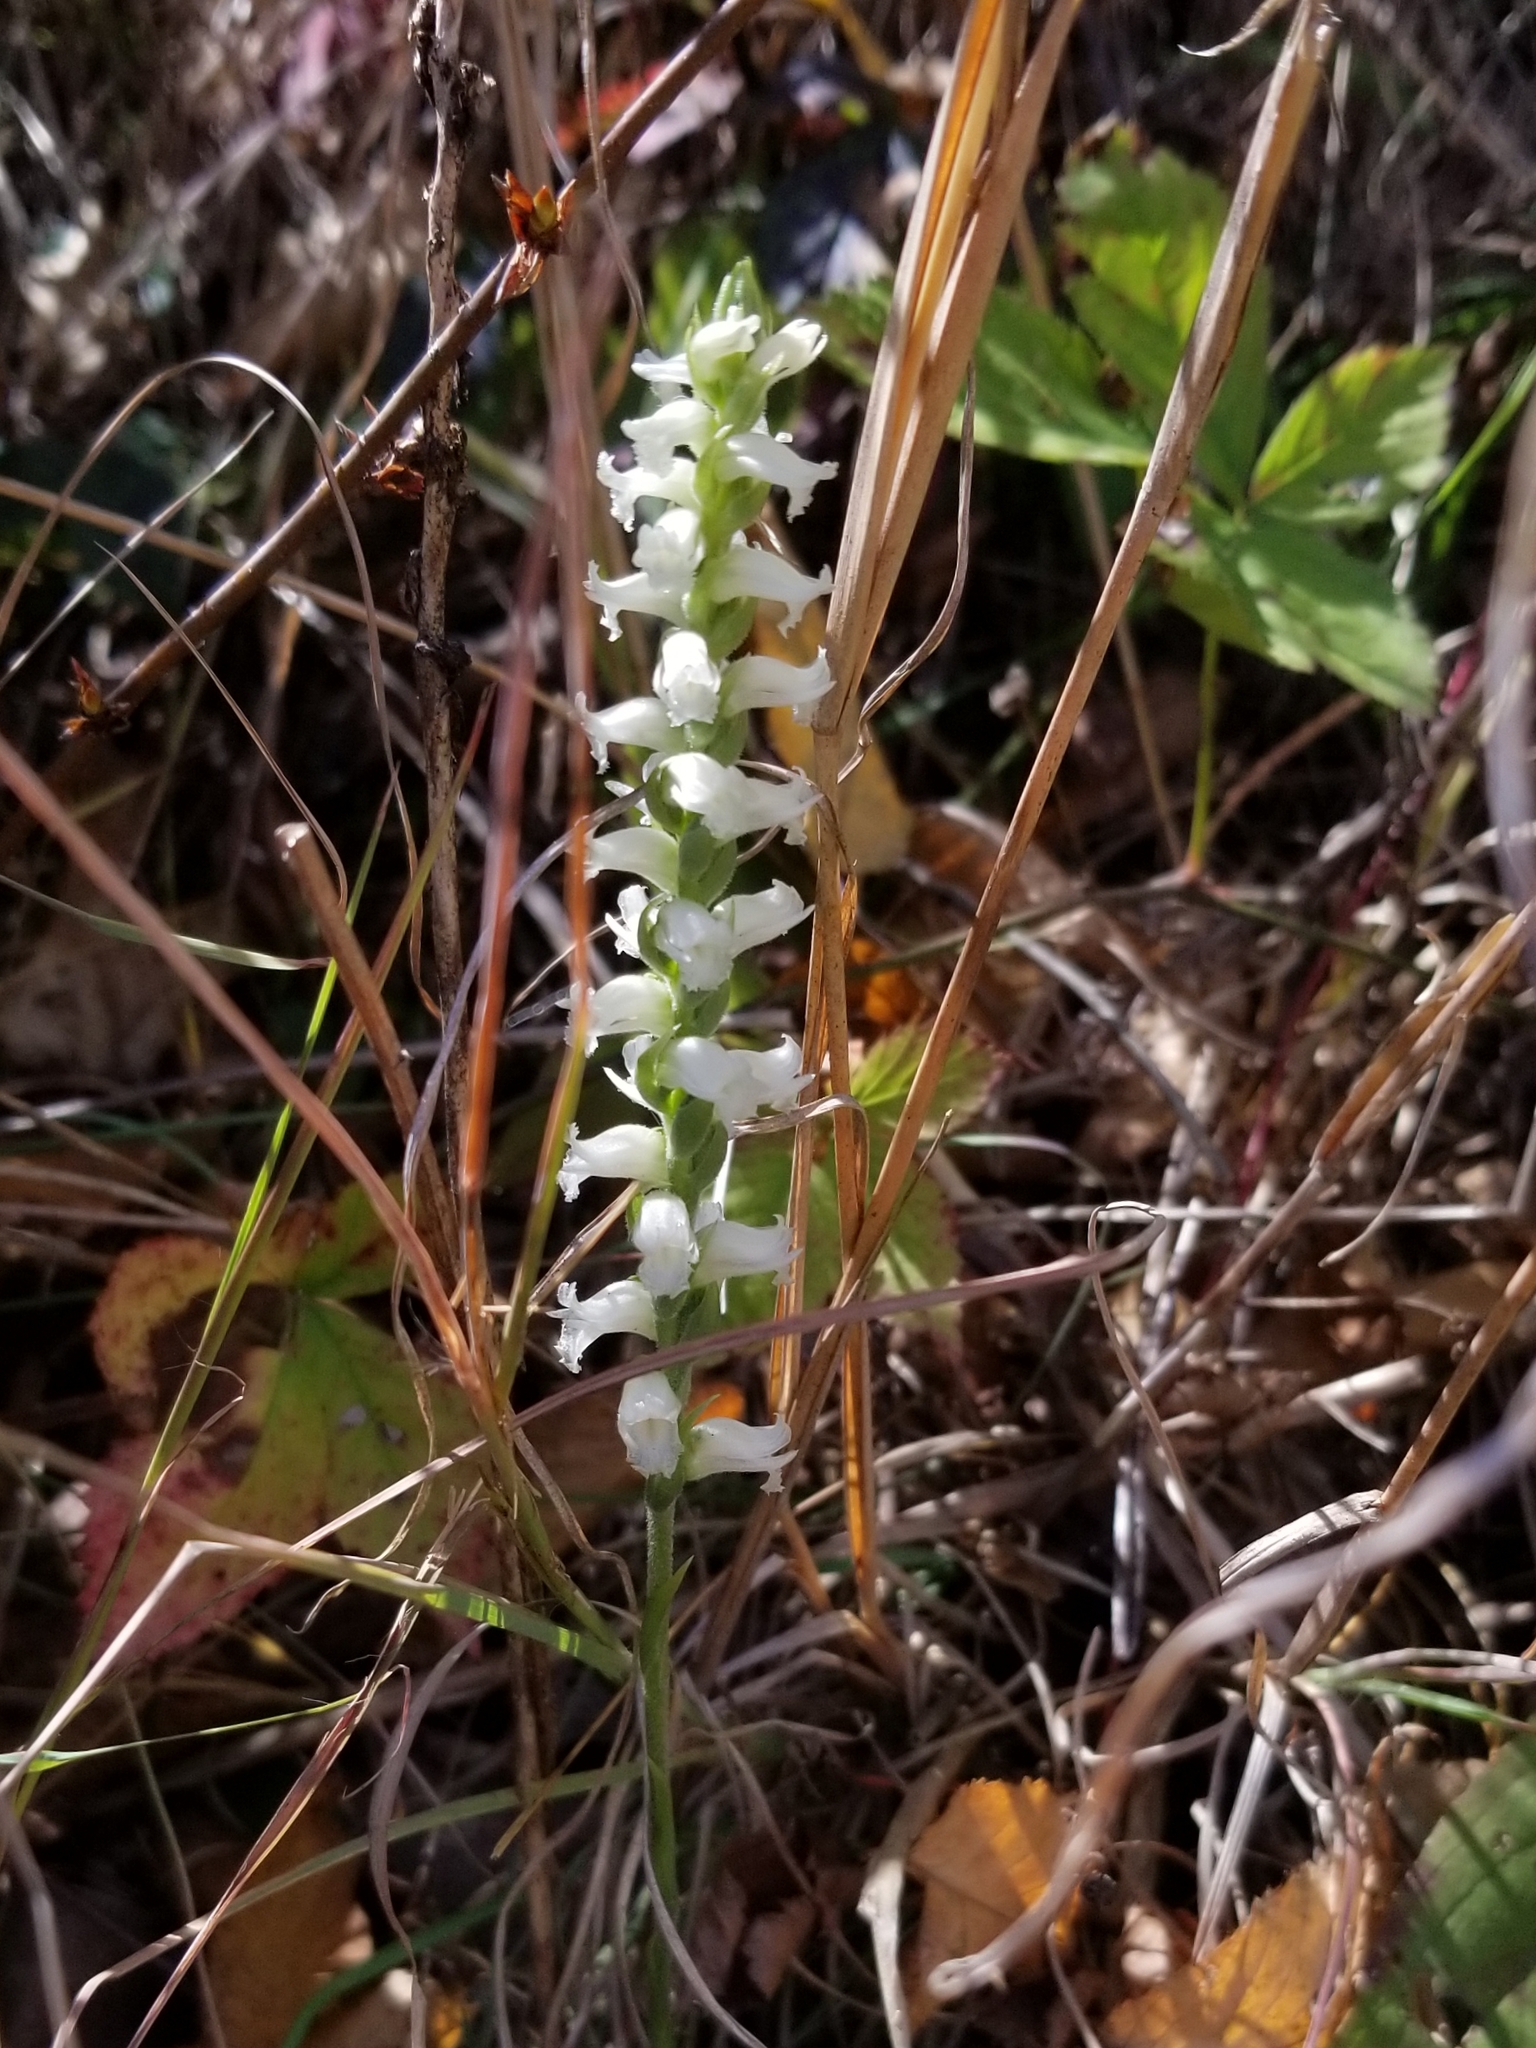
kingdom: Plantae
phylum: Tracheophyta
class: Liliopsida
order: Asparagales
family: Orchidaceae
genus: Spiranthes
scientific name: Spiranthes ochroleuca
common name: Yellow ladies'-tresses
